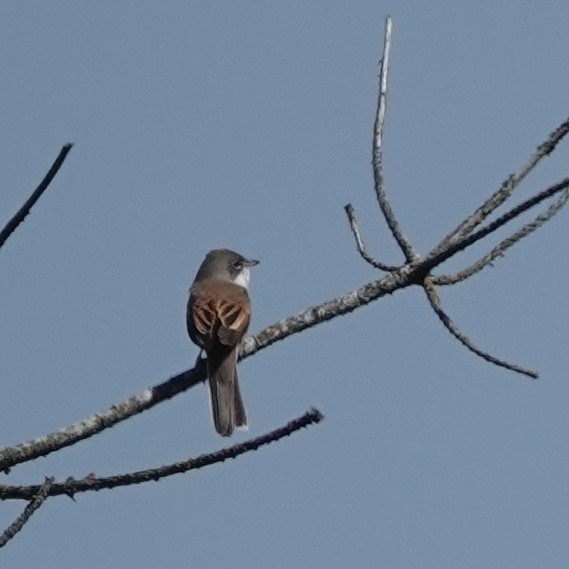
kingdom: Animalia
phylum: Chordata
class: Aves
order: Passeriformes
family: Sylviidae
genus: Sylvia
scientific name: Sylvia communis
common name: Common whitethroat
